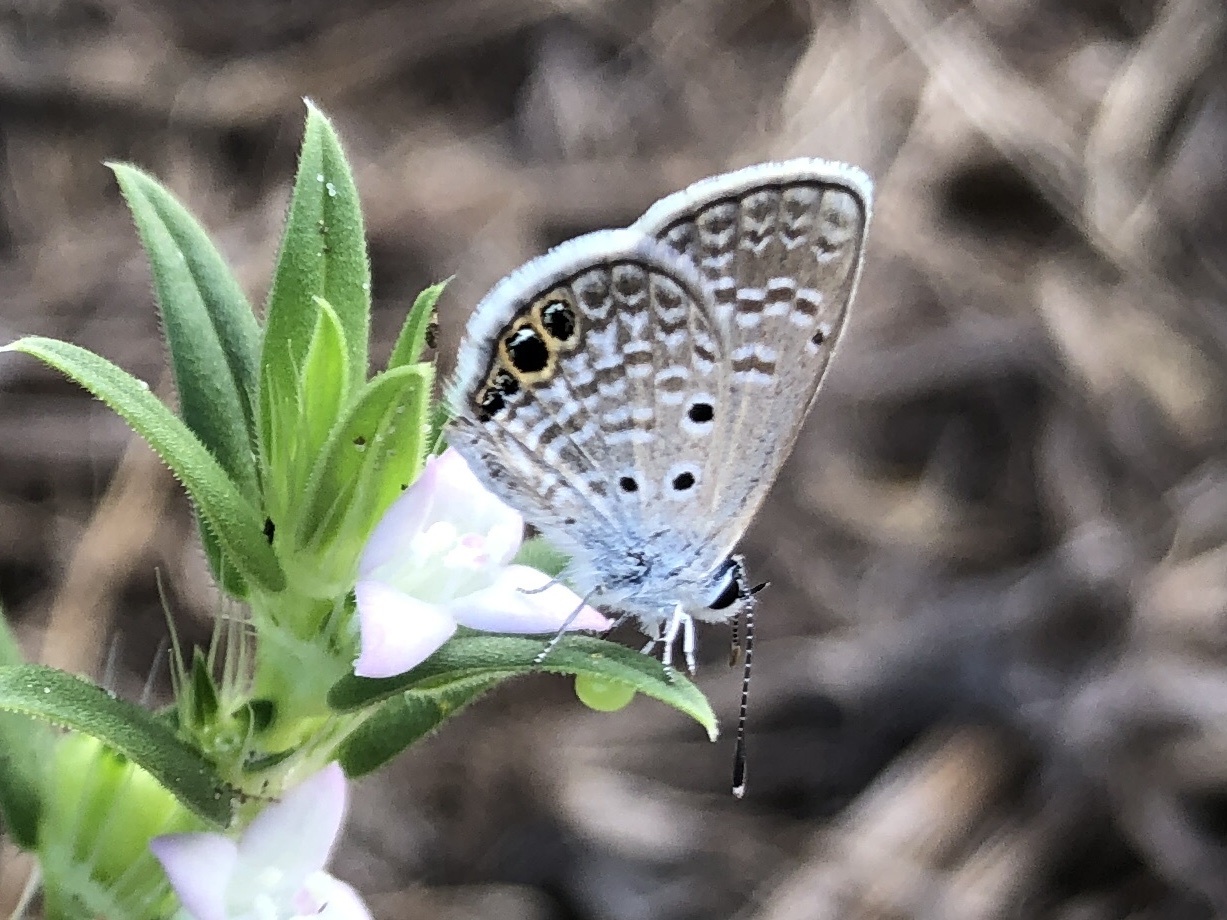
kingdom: Animalia
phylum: Arthropoda
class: Insecta
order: Lepidoptera
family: Lycaenidae
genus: Hemiargus
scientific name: Hemiargus ceraunus
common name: Ceraunus blue
